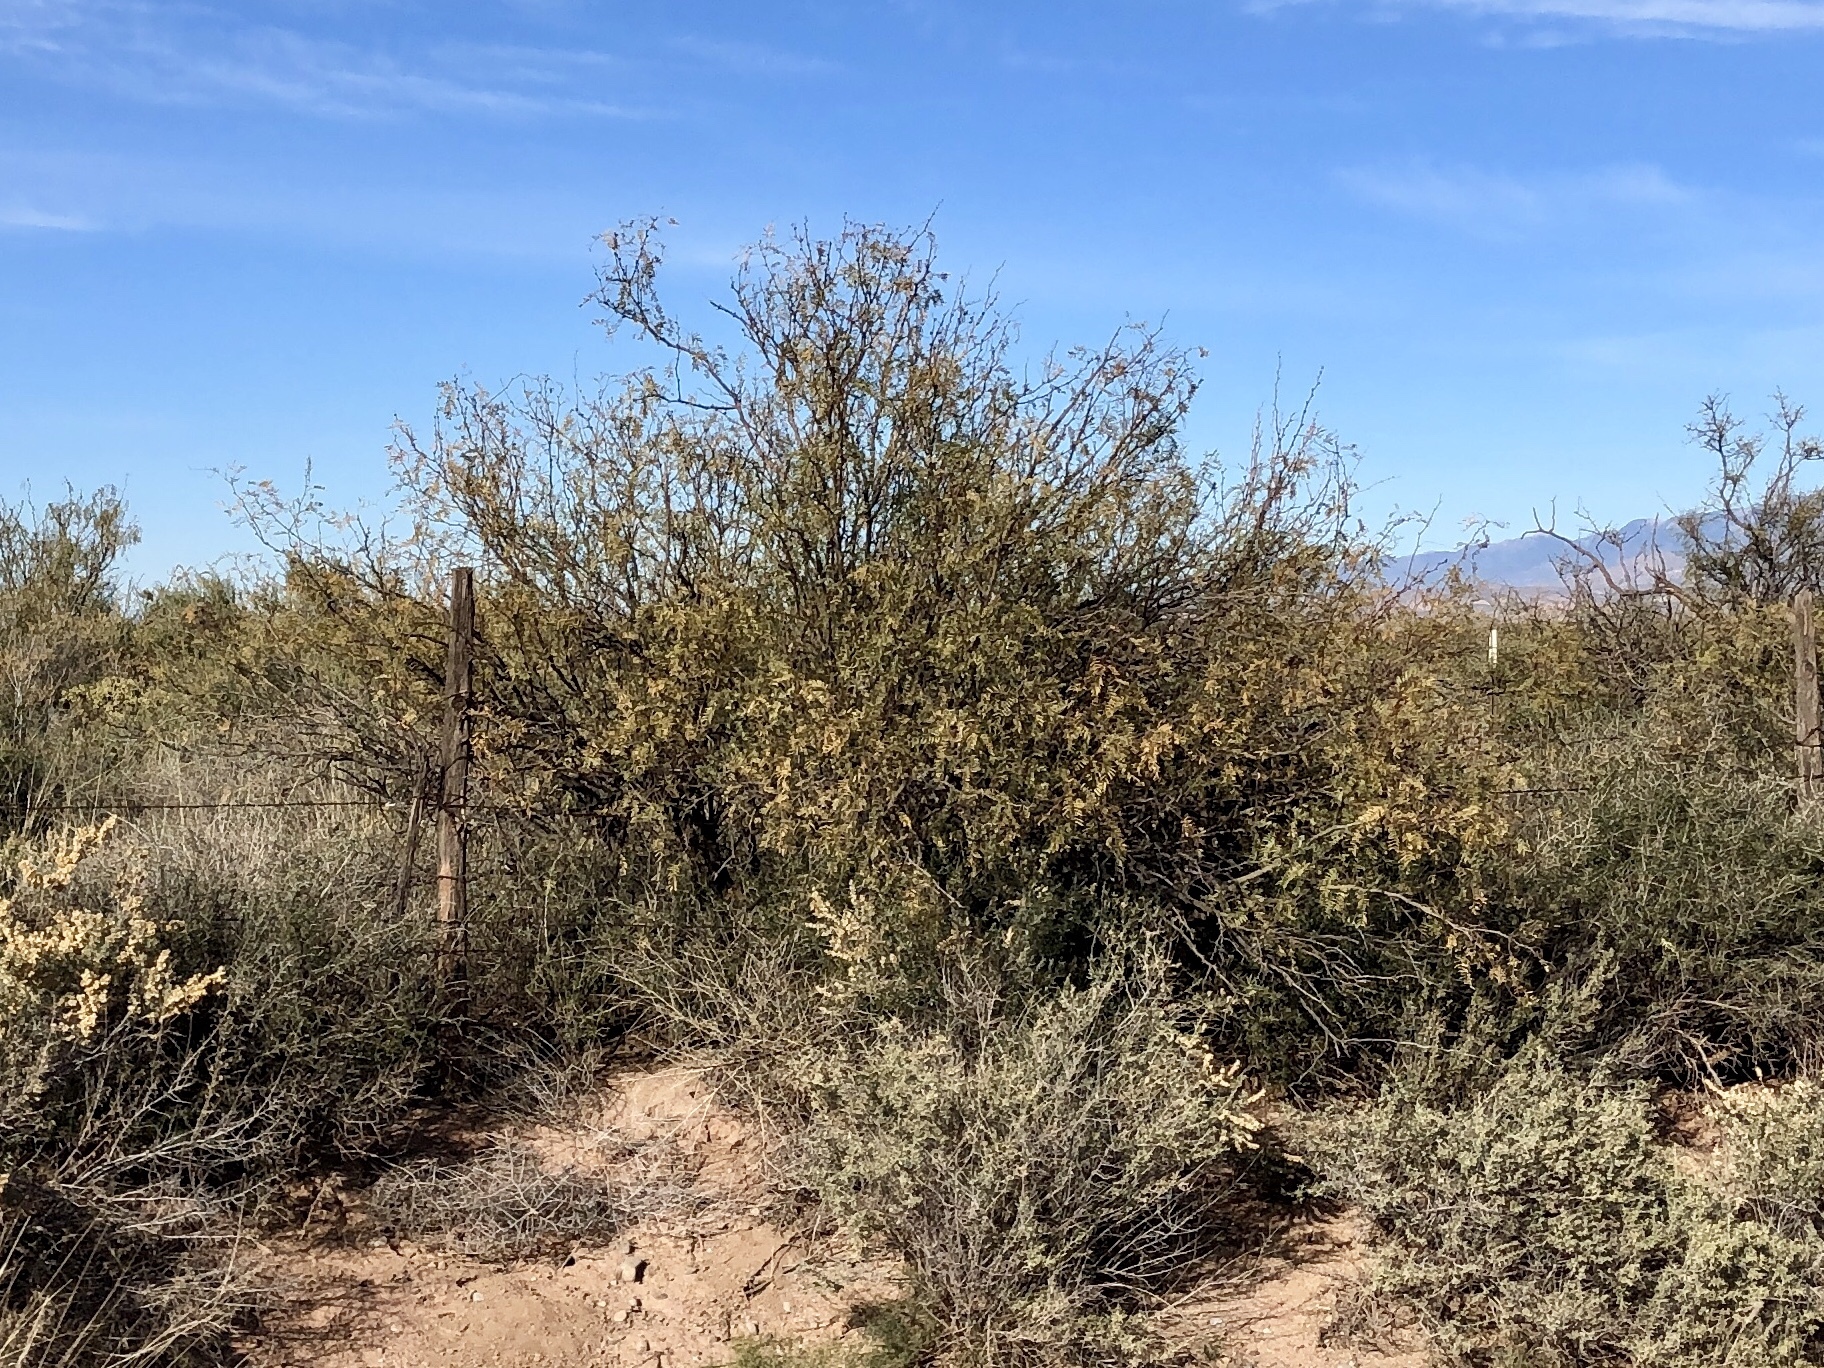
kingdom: Plantae
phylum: Tracheophyta
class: Magnoliopsida
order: Fabales
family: Fabaceae
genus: Prosopis
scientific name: Prosopis glandulosa
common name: Honey mesquite
